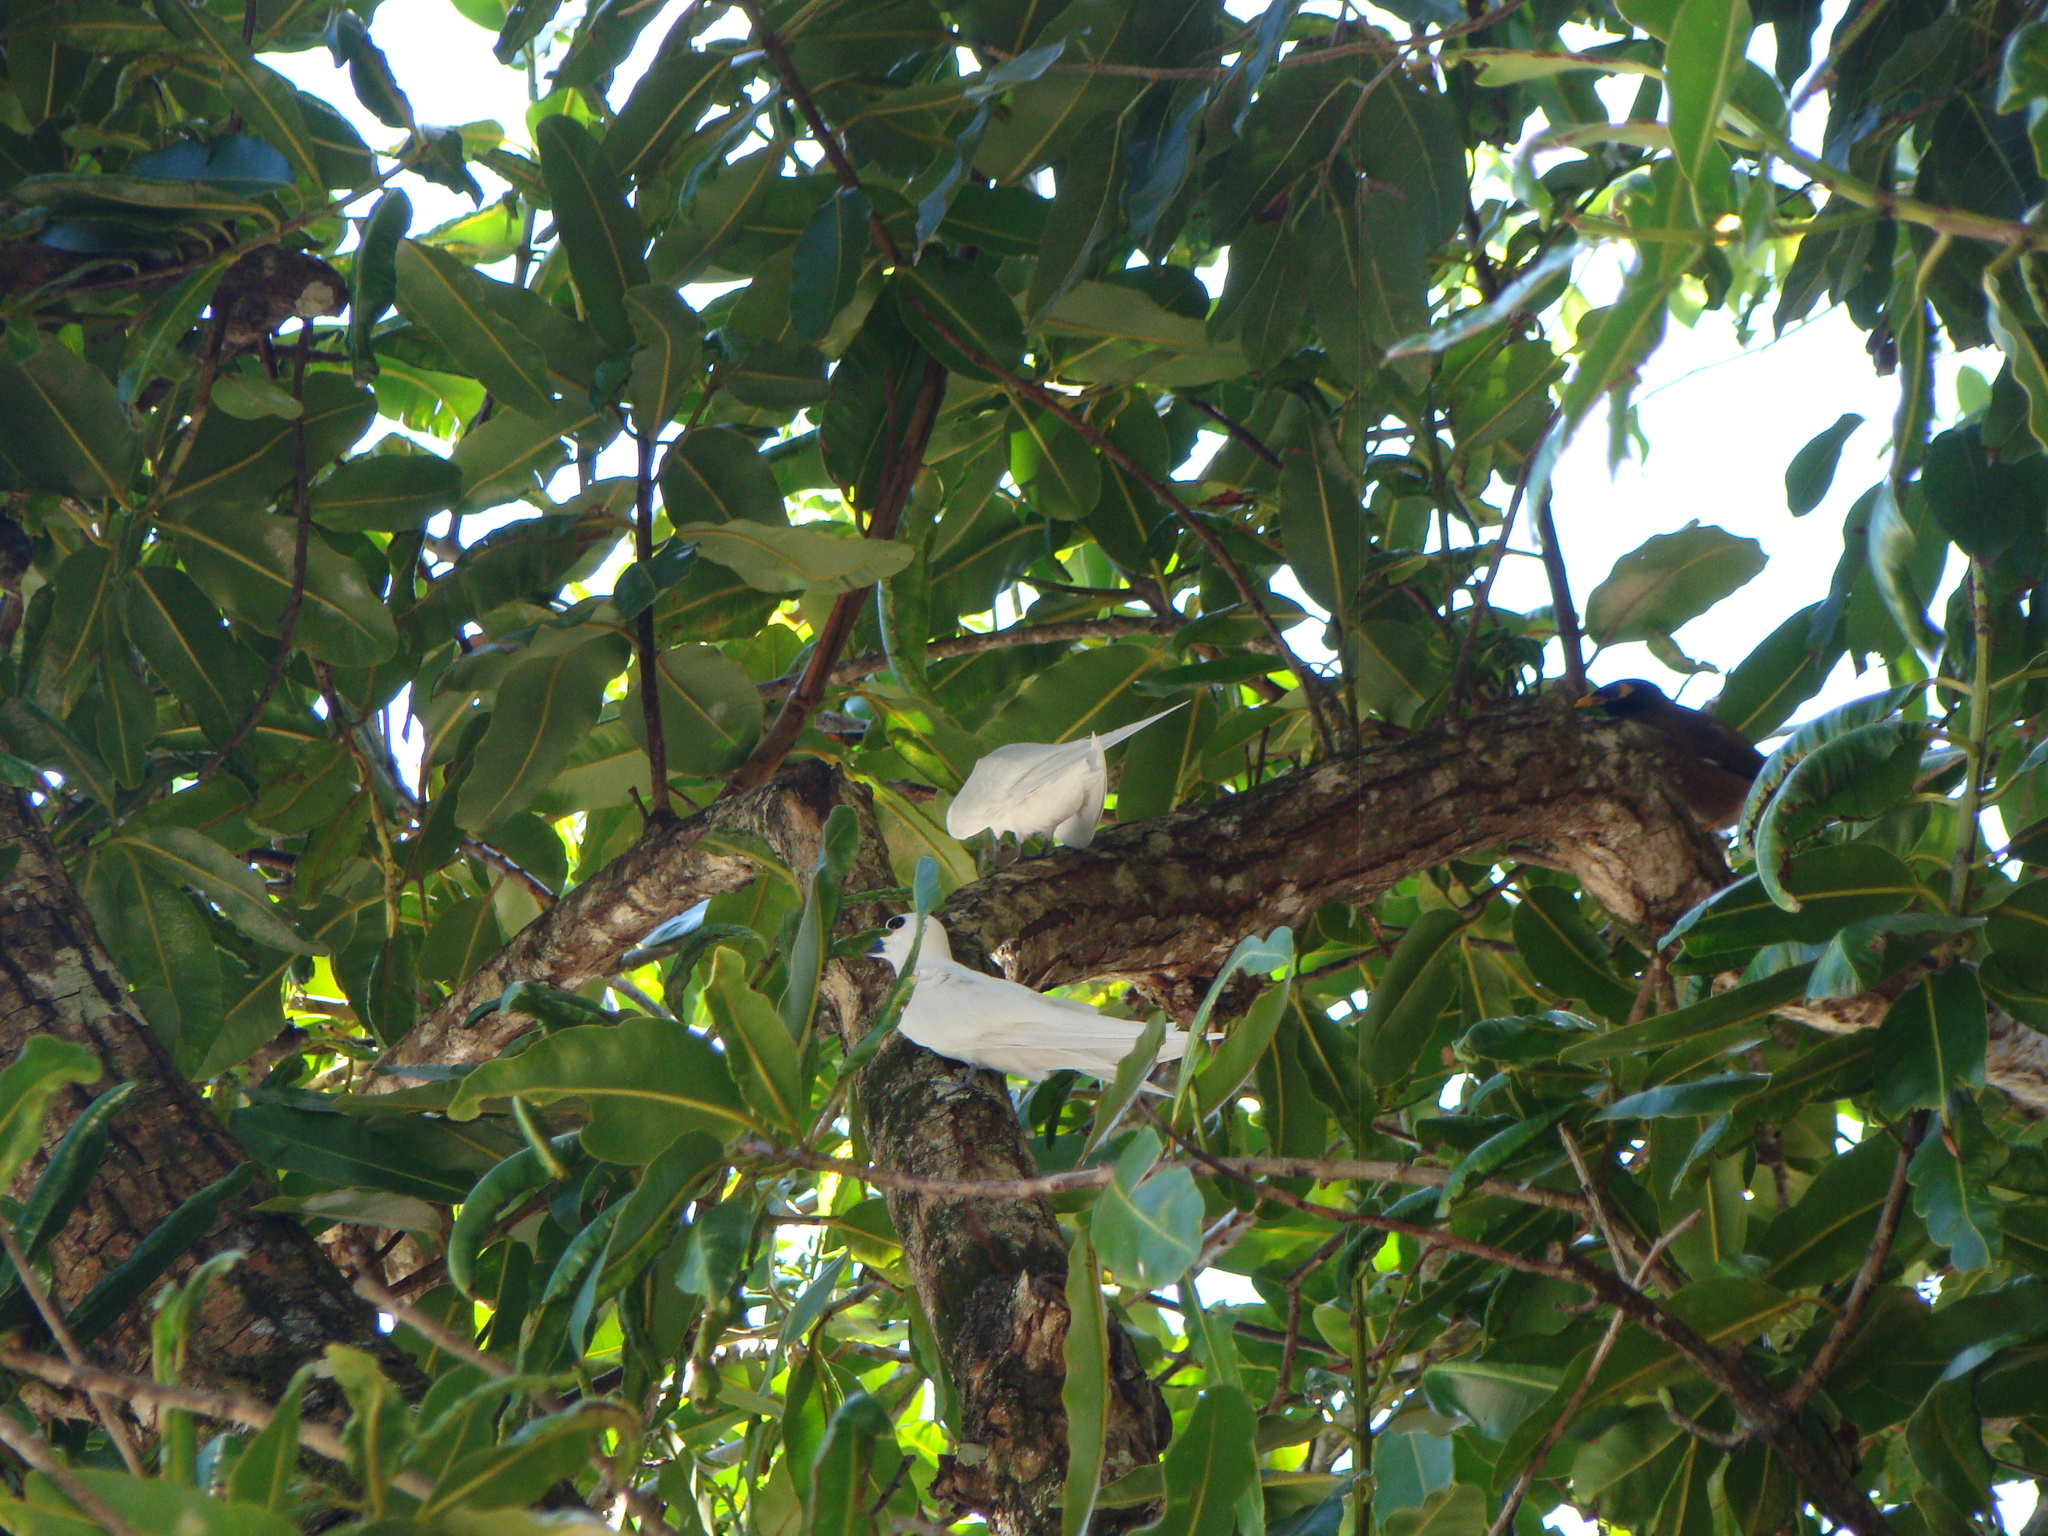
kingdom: Animalia
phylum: Chordata
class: Aves
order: Charadriiformes
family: Laridae
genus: Gygis
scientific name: Gygis alba
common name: White tern
